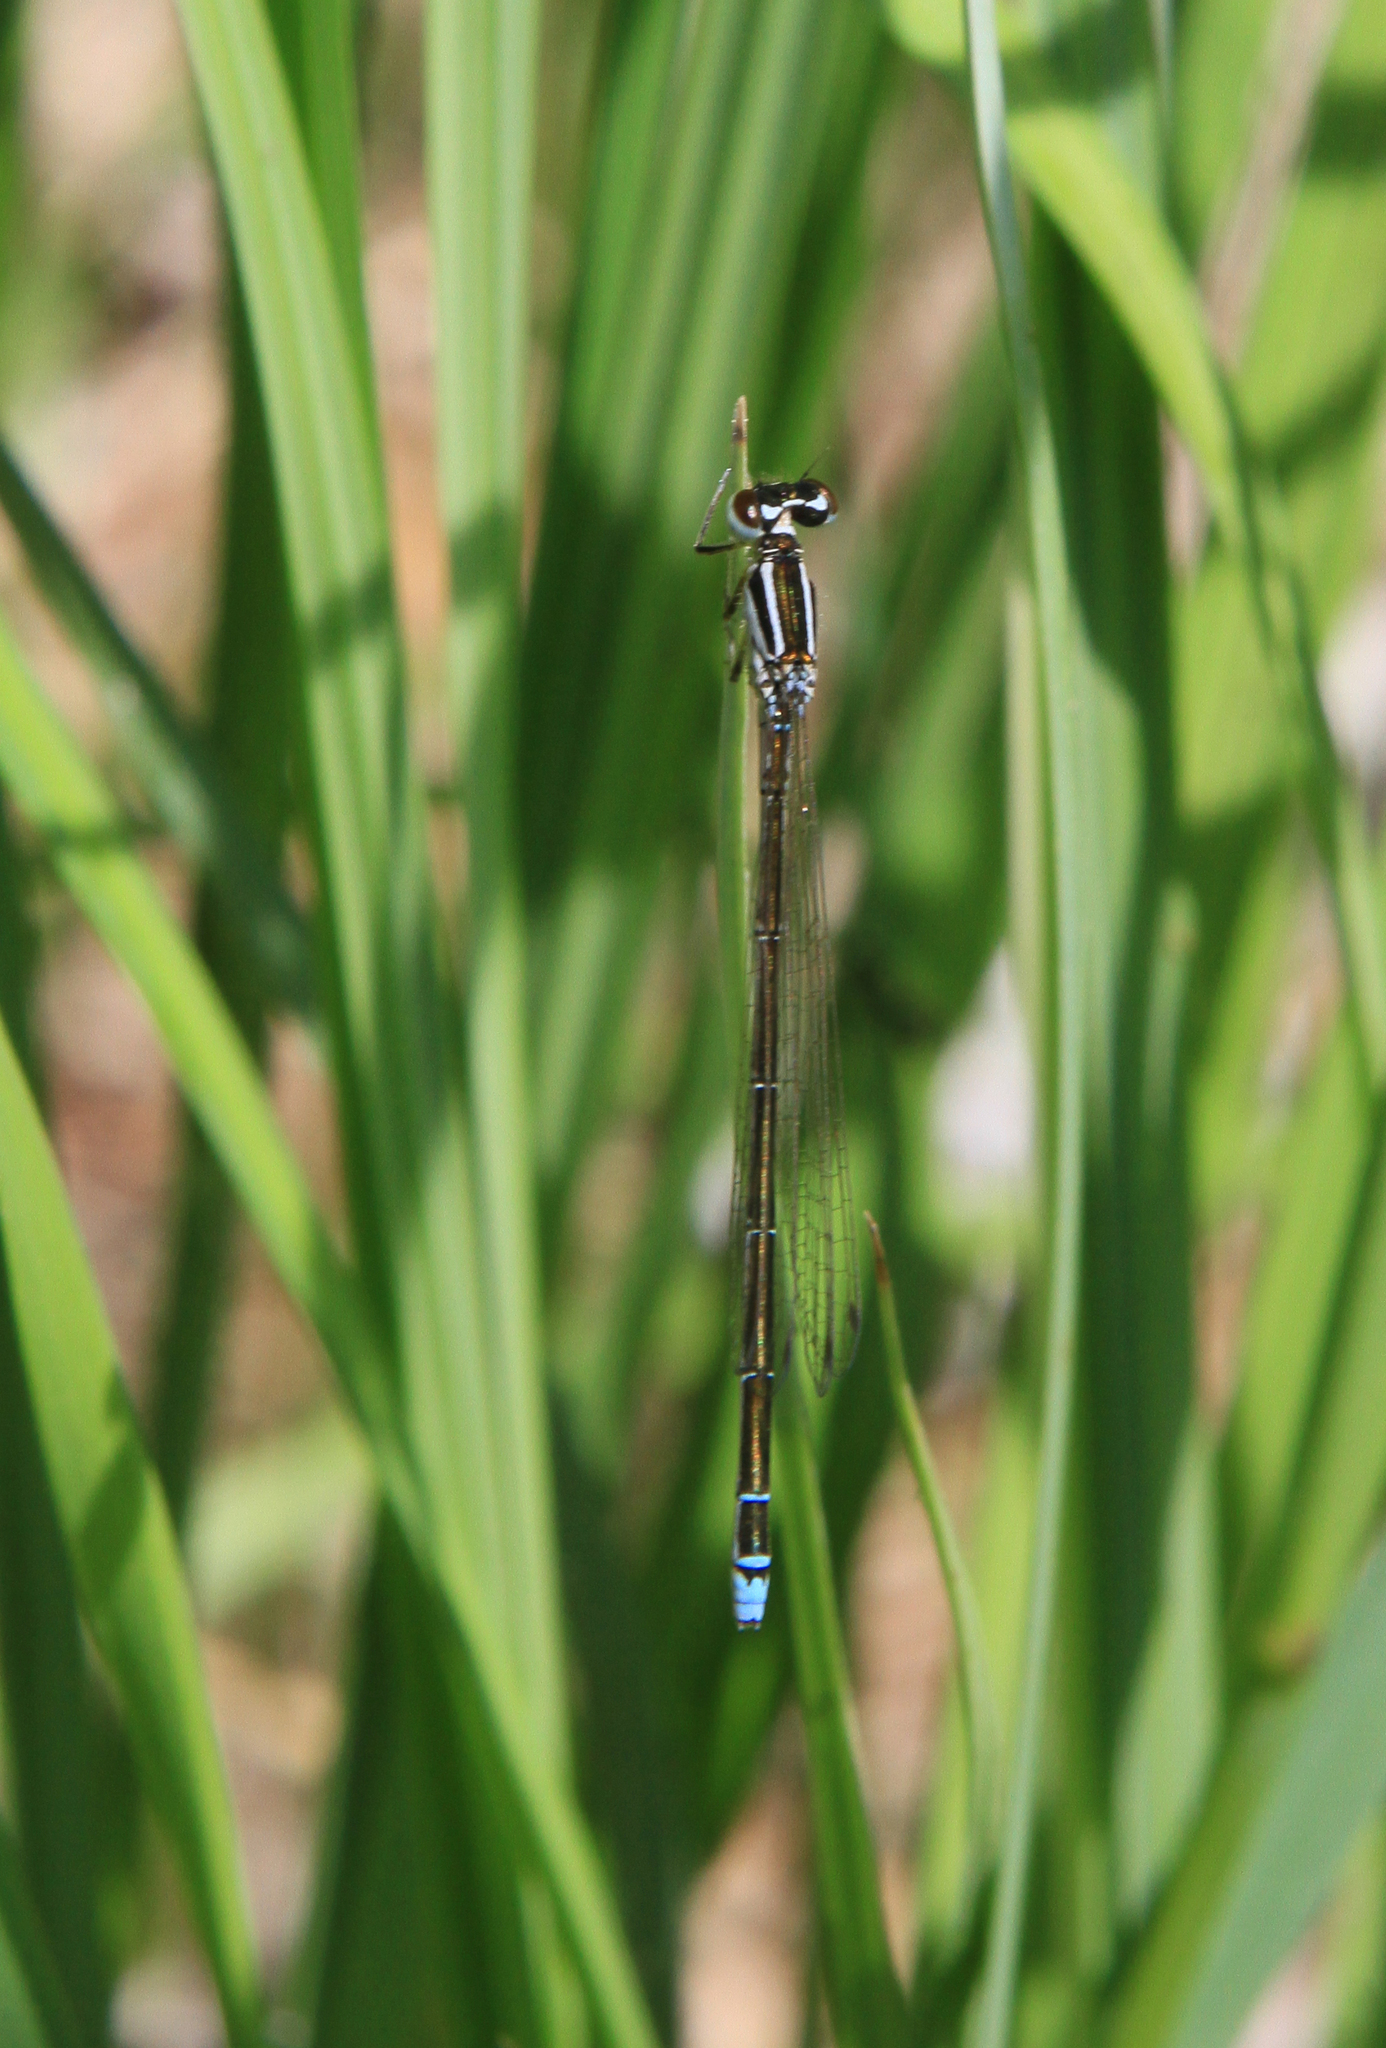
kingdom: Animalia
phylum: Arthropoda
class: Insecta
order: Odonata
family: Coenagrionidae
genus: Coenagrion
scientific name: Coenagrion ecornutum
